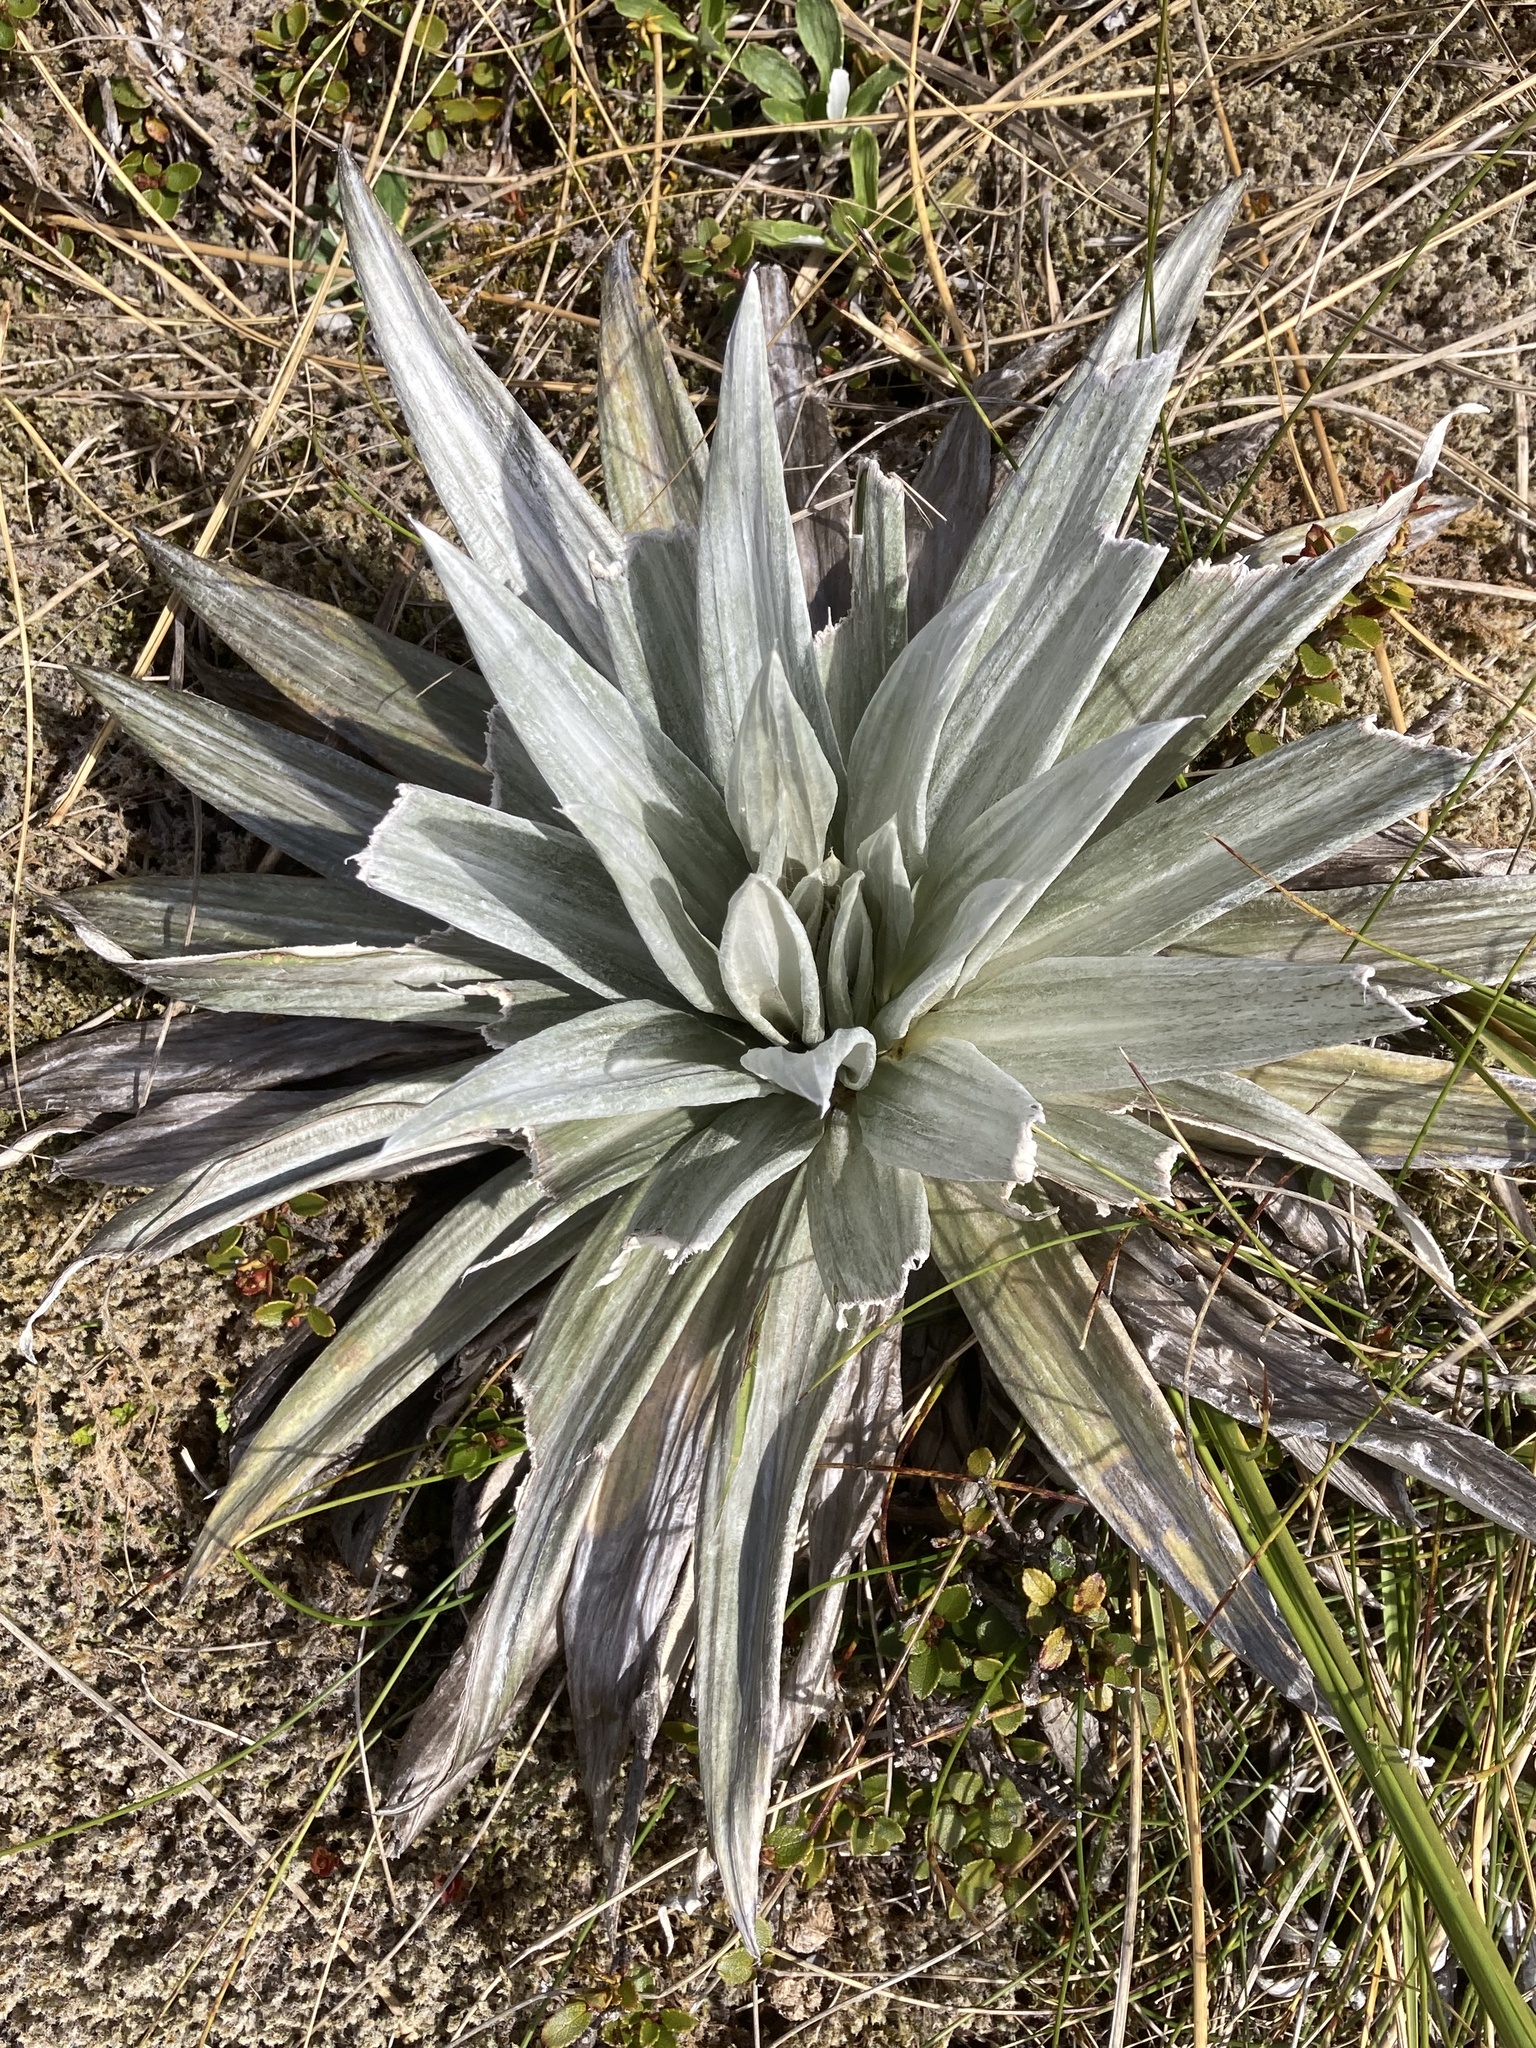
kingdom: Plantae
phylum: Tracheophyta
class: Magnoliopsida
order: Asterales
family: Asteraceae
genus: Celmisia
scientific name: Celmisia semicordata
